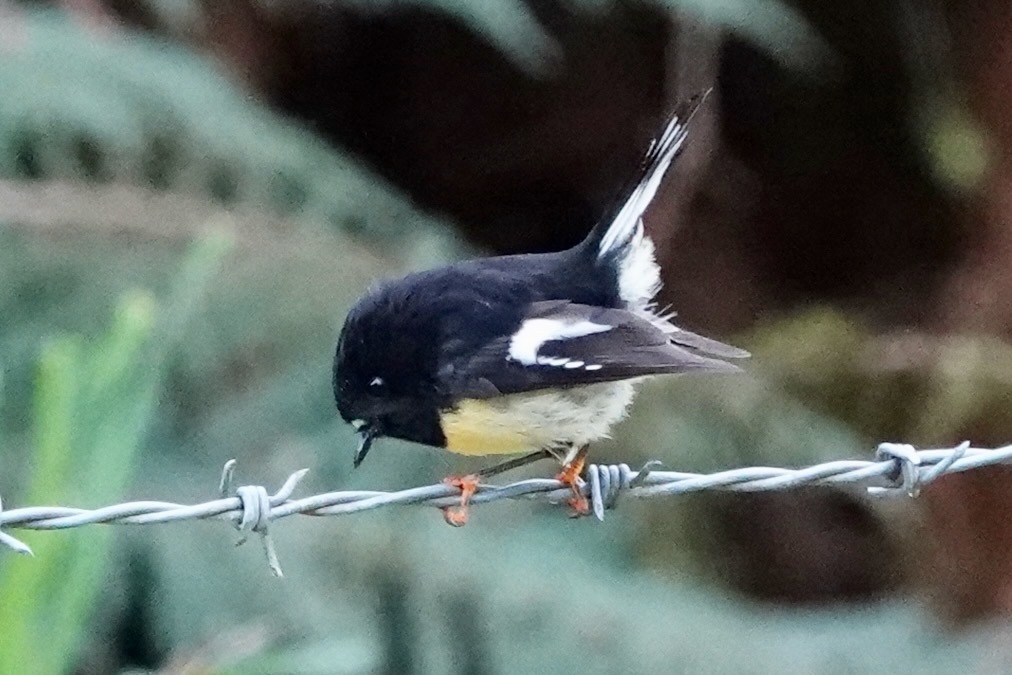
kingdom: Animalia
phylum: Chordata
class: Aves
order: Passeriformes
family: Petroicidae
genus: Petroica
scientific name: Petroica macrocephala
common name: Tomtit
